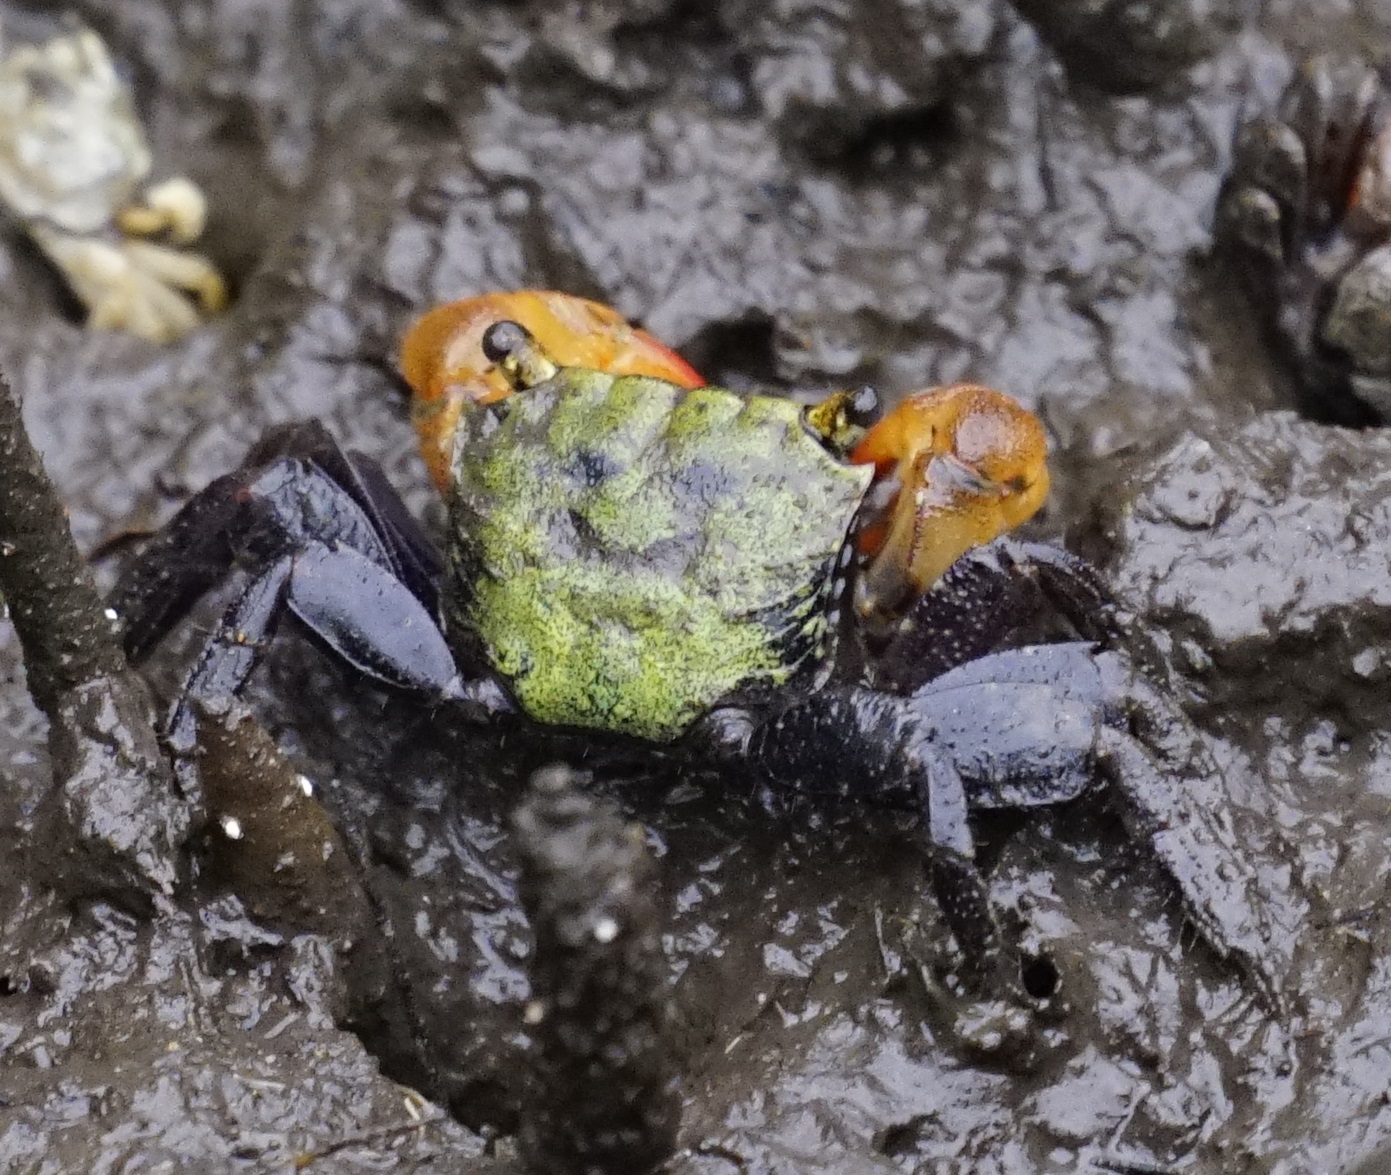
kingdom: Animalia
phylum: Arthropoda
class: Malacostraca
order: Decapoda
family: Sesarmidae
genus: Parasesarma
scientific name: Parasesarma erythodactylum
